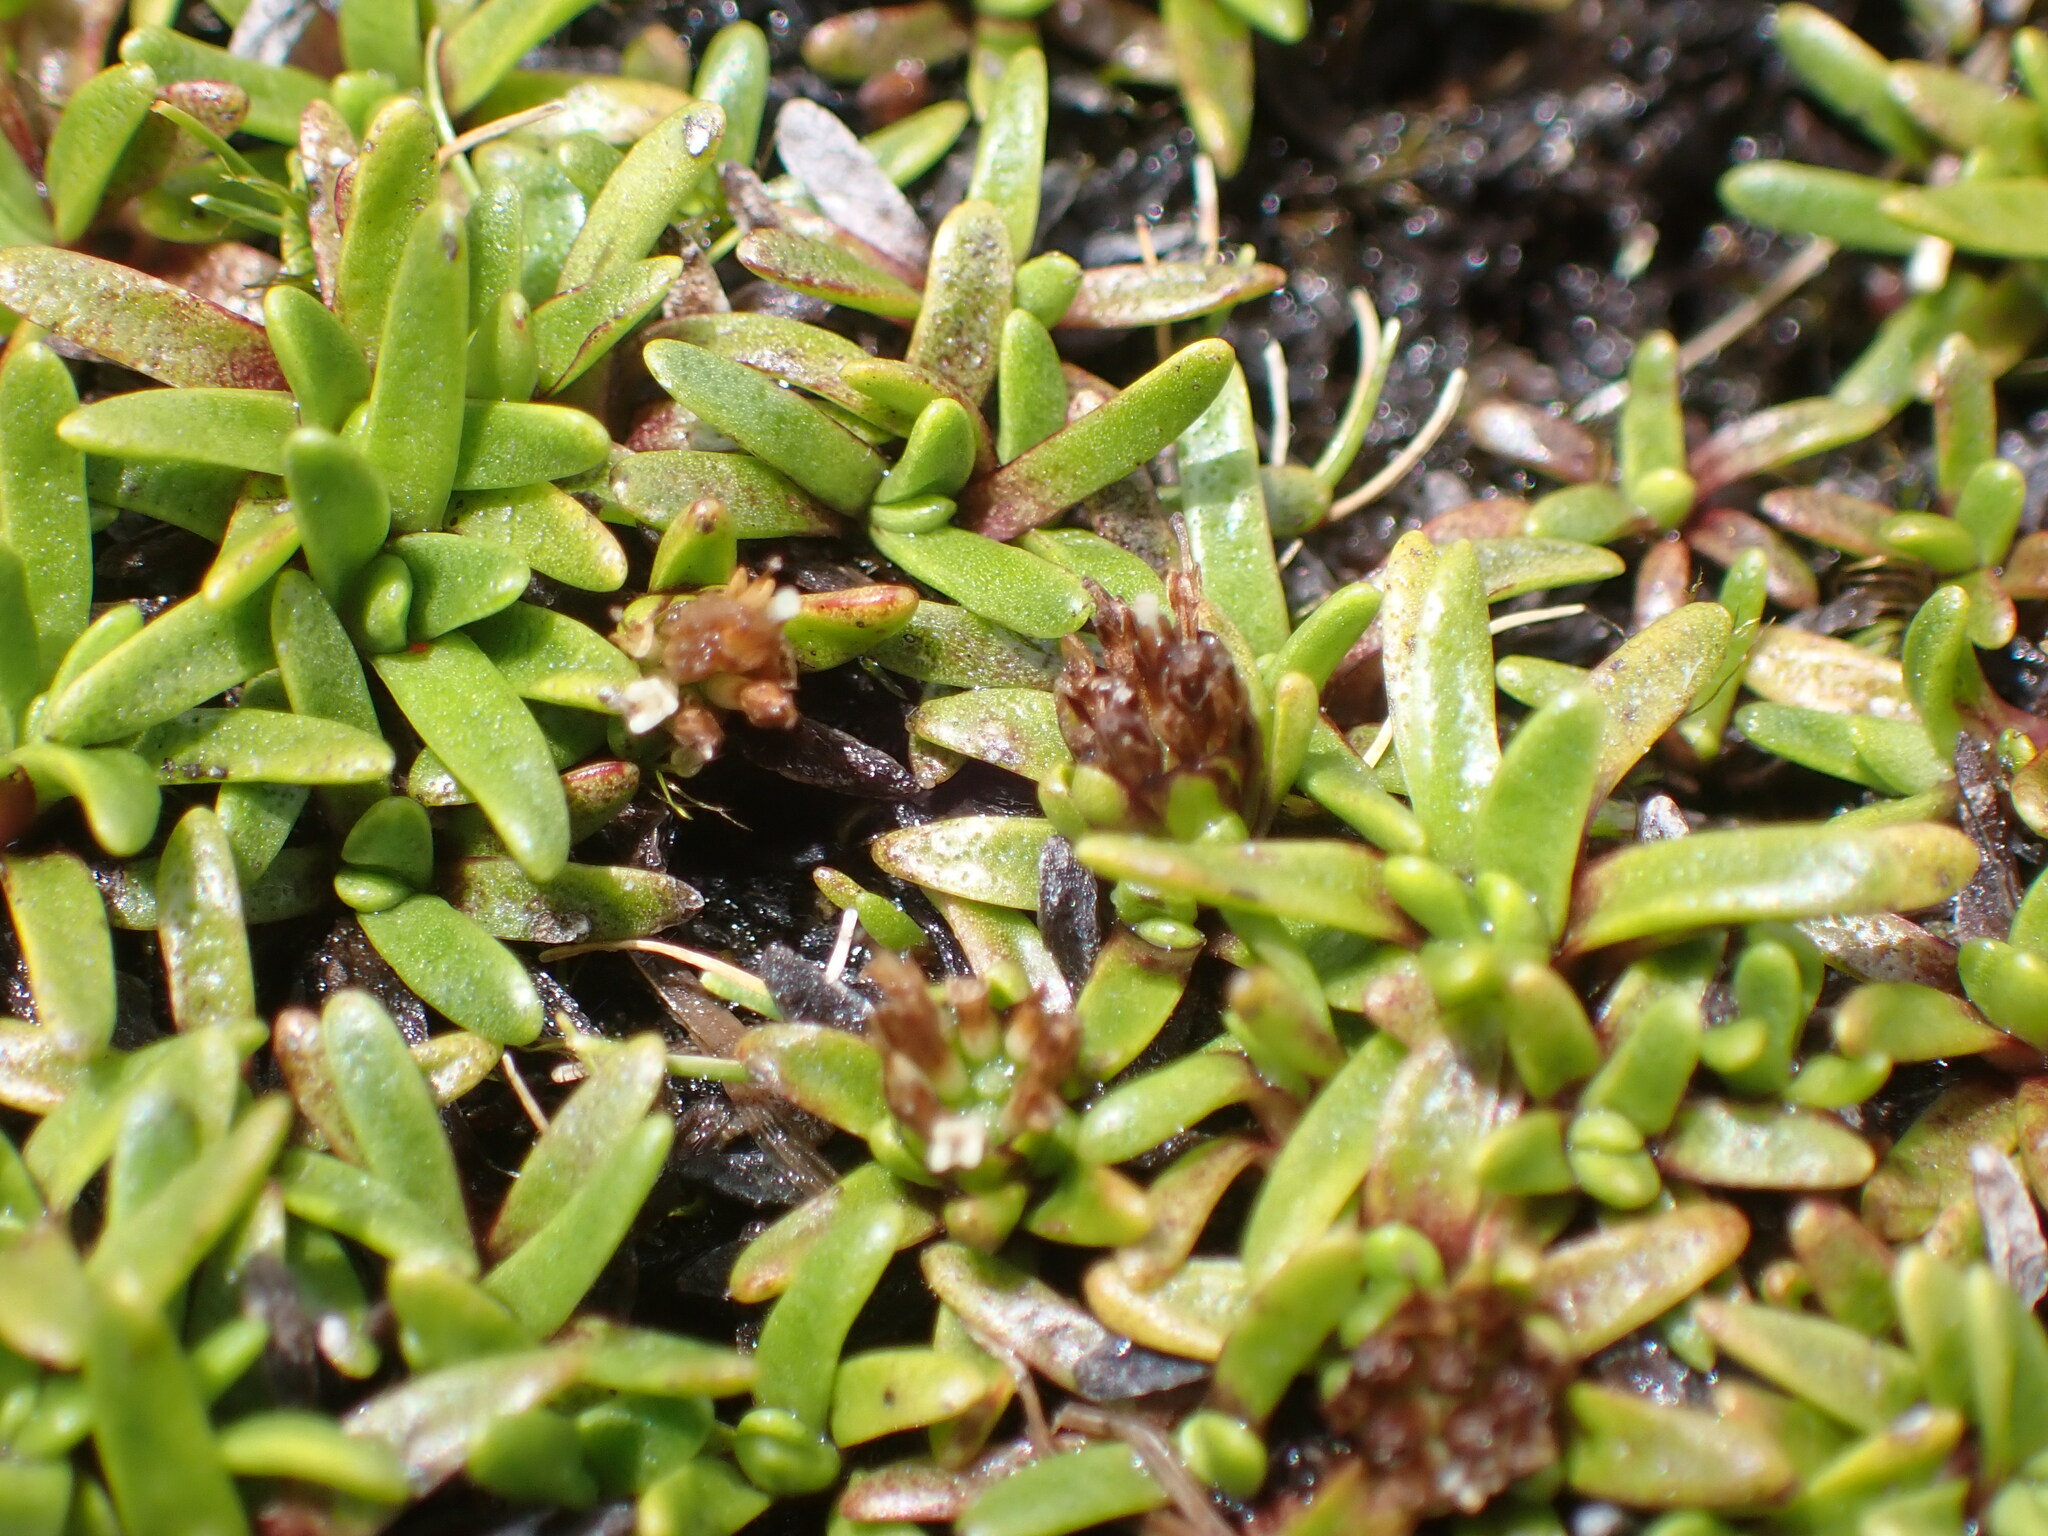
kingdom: Plantae
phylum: Tracheophyta
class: Magnoliopsida
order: Asterales
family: Asteraceae
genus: Abrotanella
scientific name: Abrotanella caespitosa
